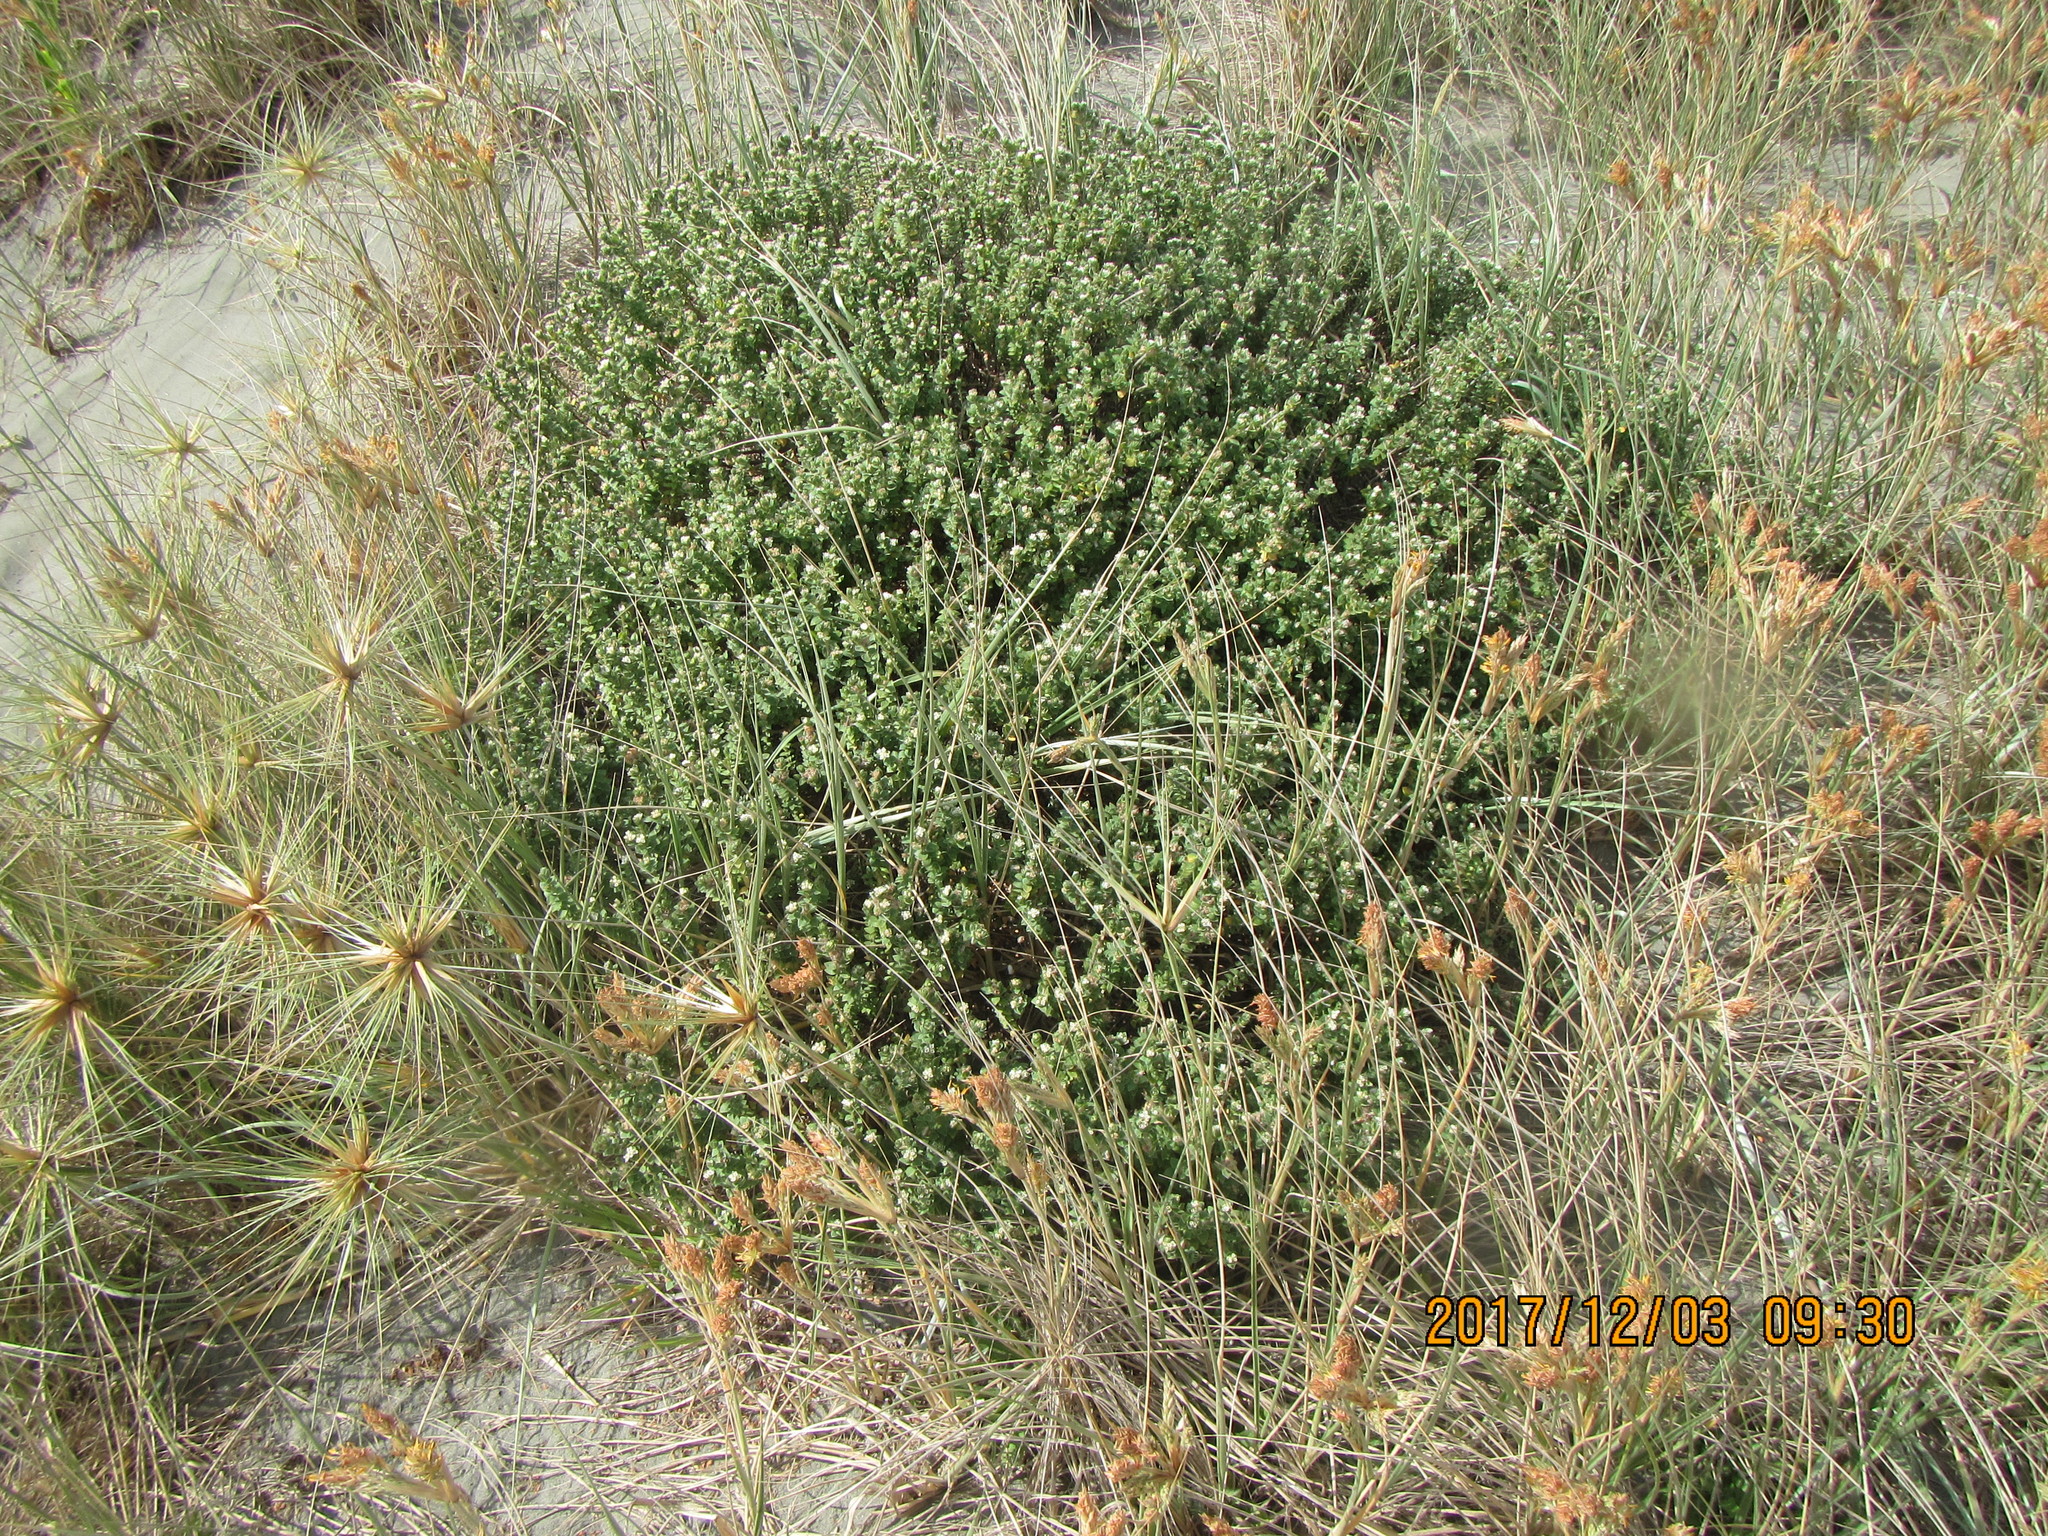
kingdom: Plantae
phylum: Tracheophyta
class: Magnoliopsida
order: Malvales
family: Thymelaeaceae
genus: Pimelea
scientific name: Pimelea villosa
